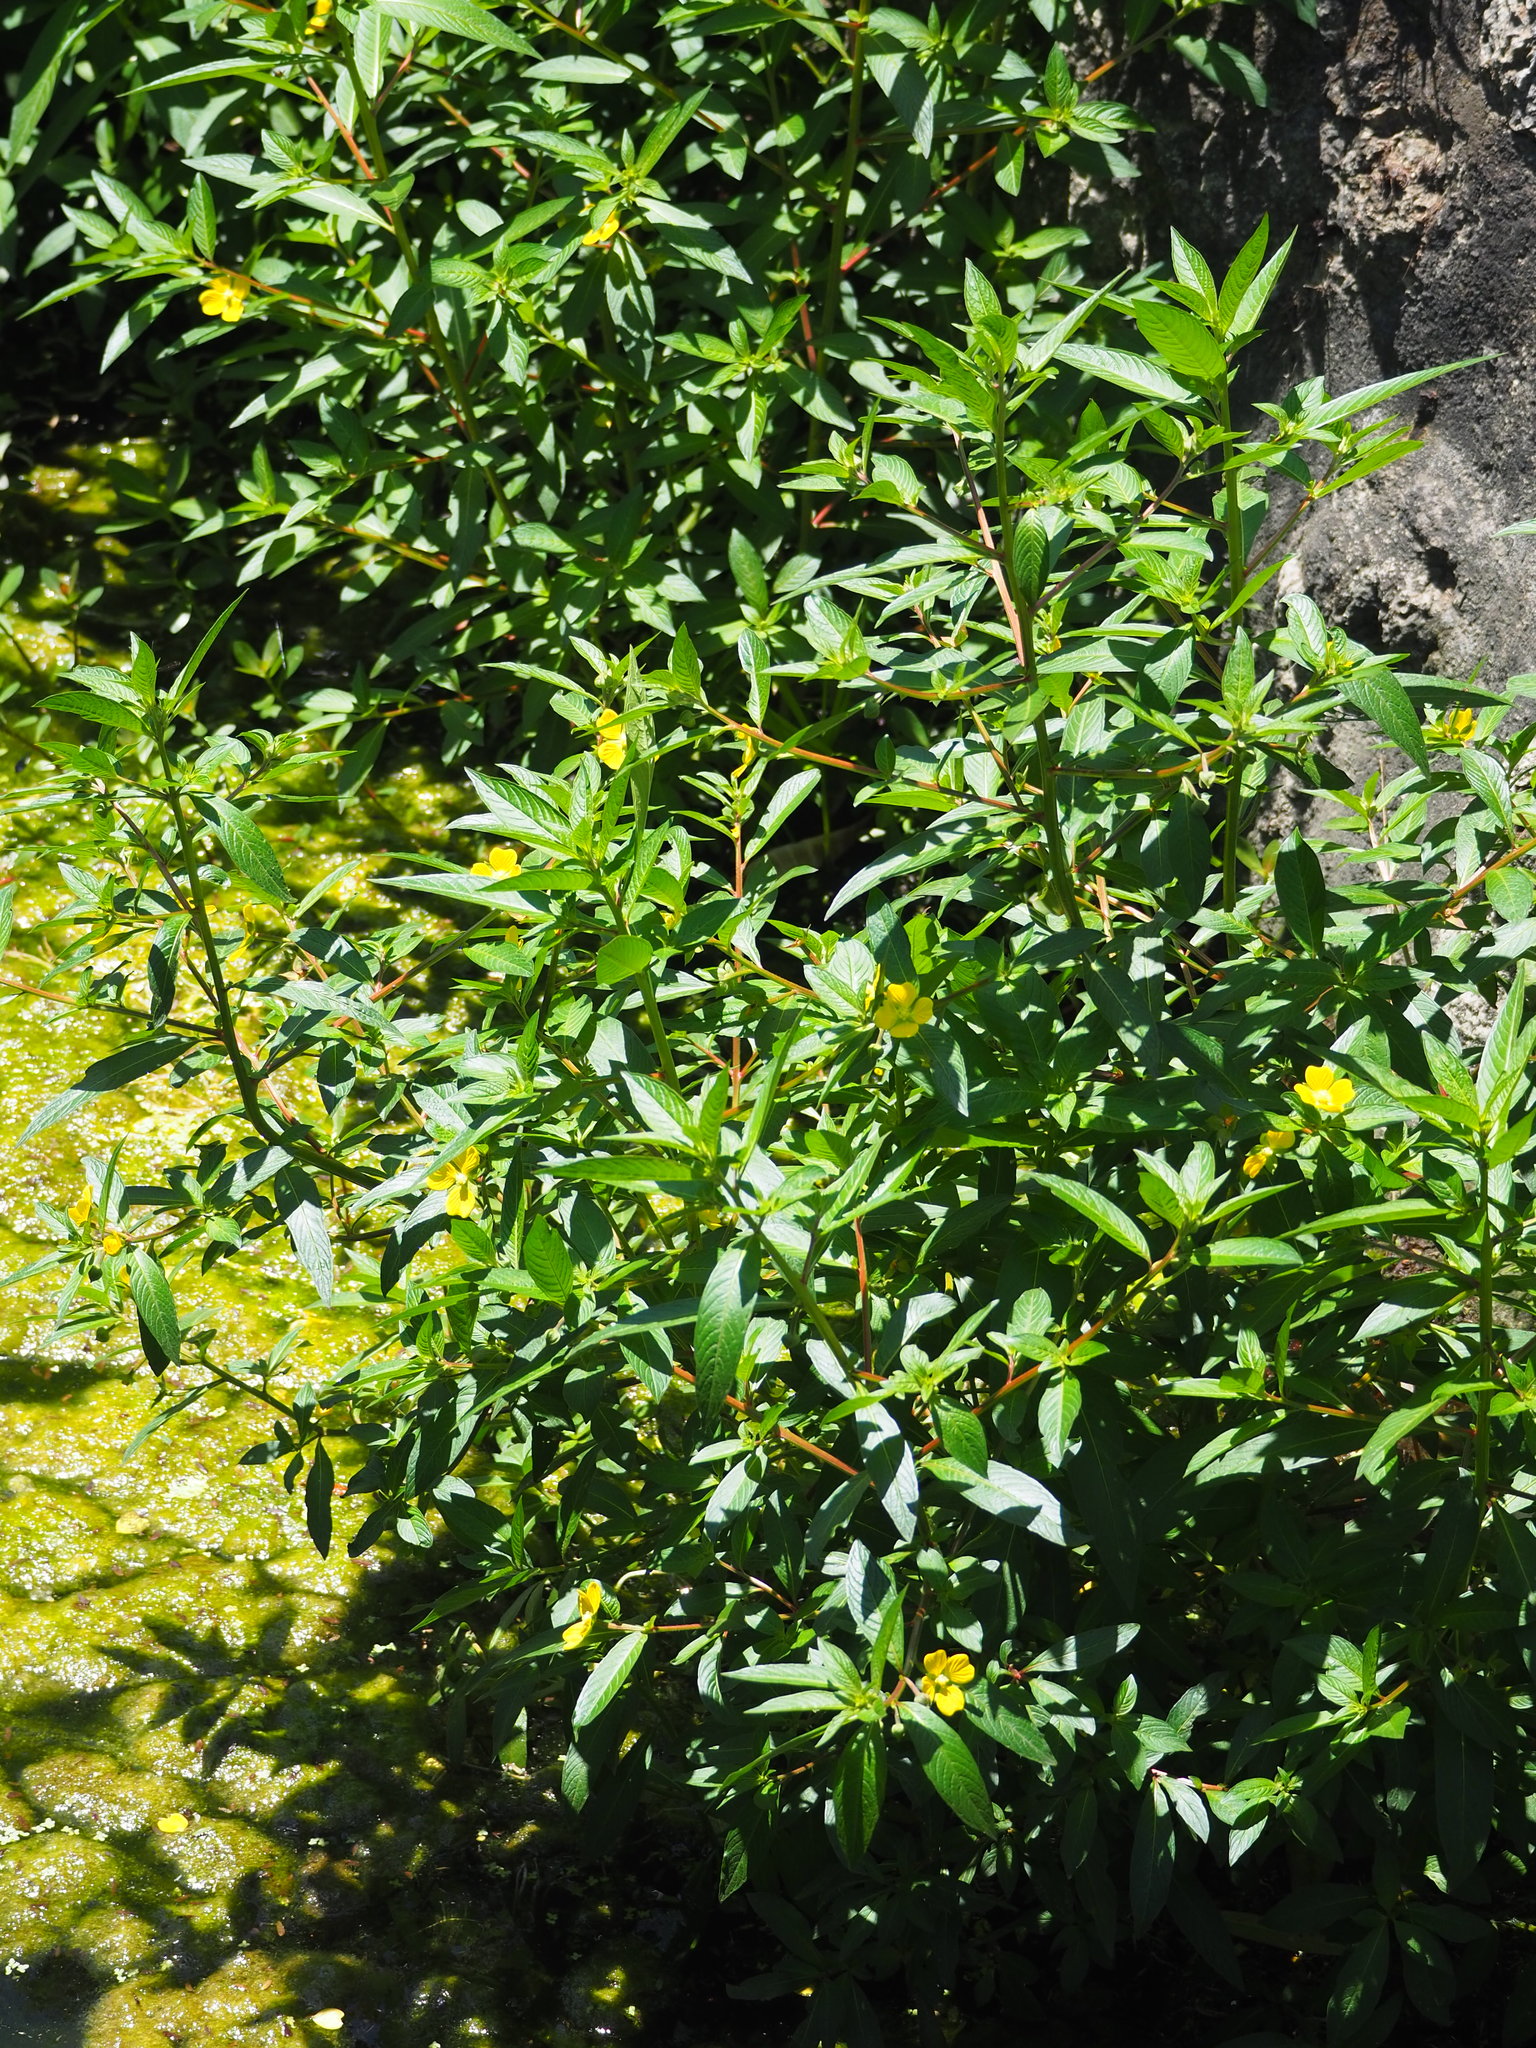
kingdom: Plantae
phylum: Tracheophyta
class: Magnoliopsida
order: Myrtales
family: Onagraceae
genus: Ludwigia
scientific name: Ludwigia octovalvis
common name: Water-primrose
